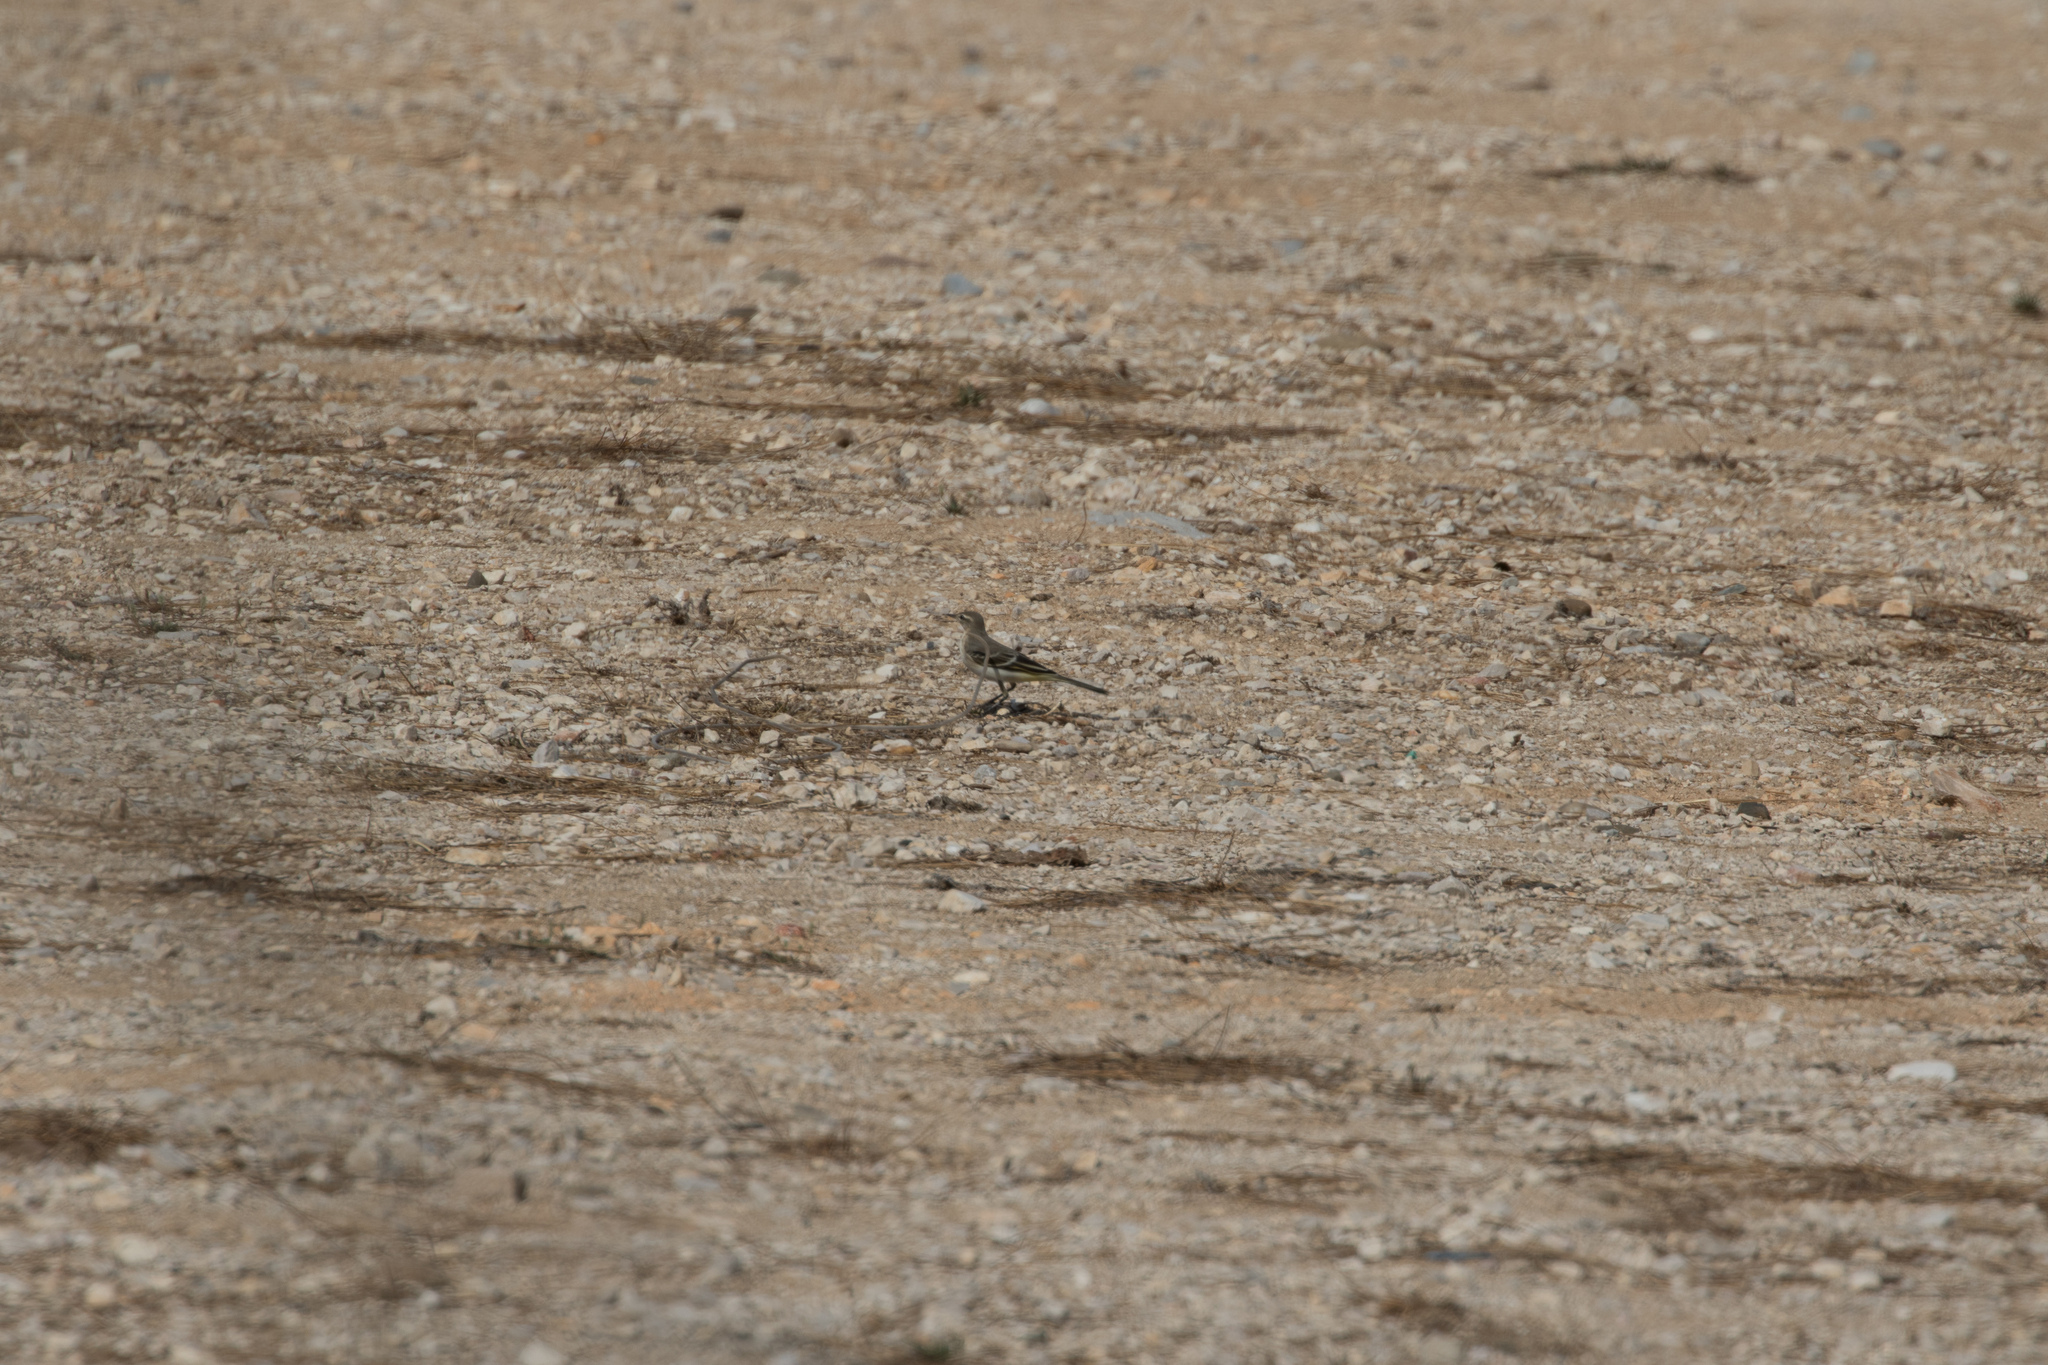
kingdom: Animalia
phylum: Chordata
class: Aves
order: Passeriformes
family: Motacillidae
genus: Motacilla
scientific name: Motacilla flava
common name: Western yellow wagtail
